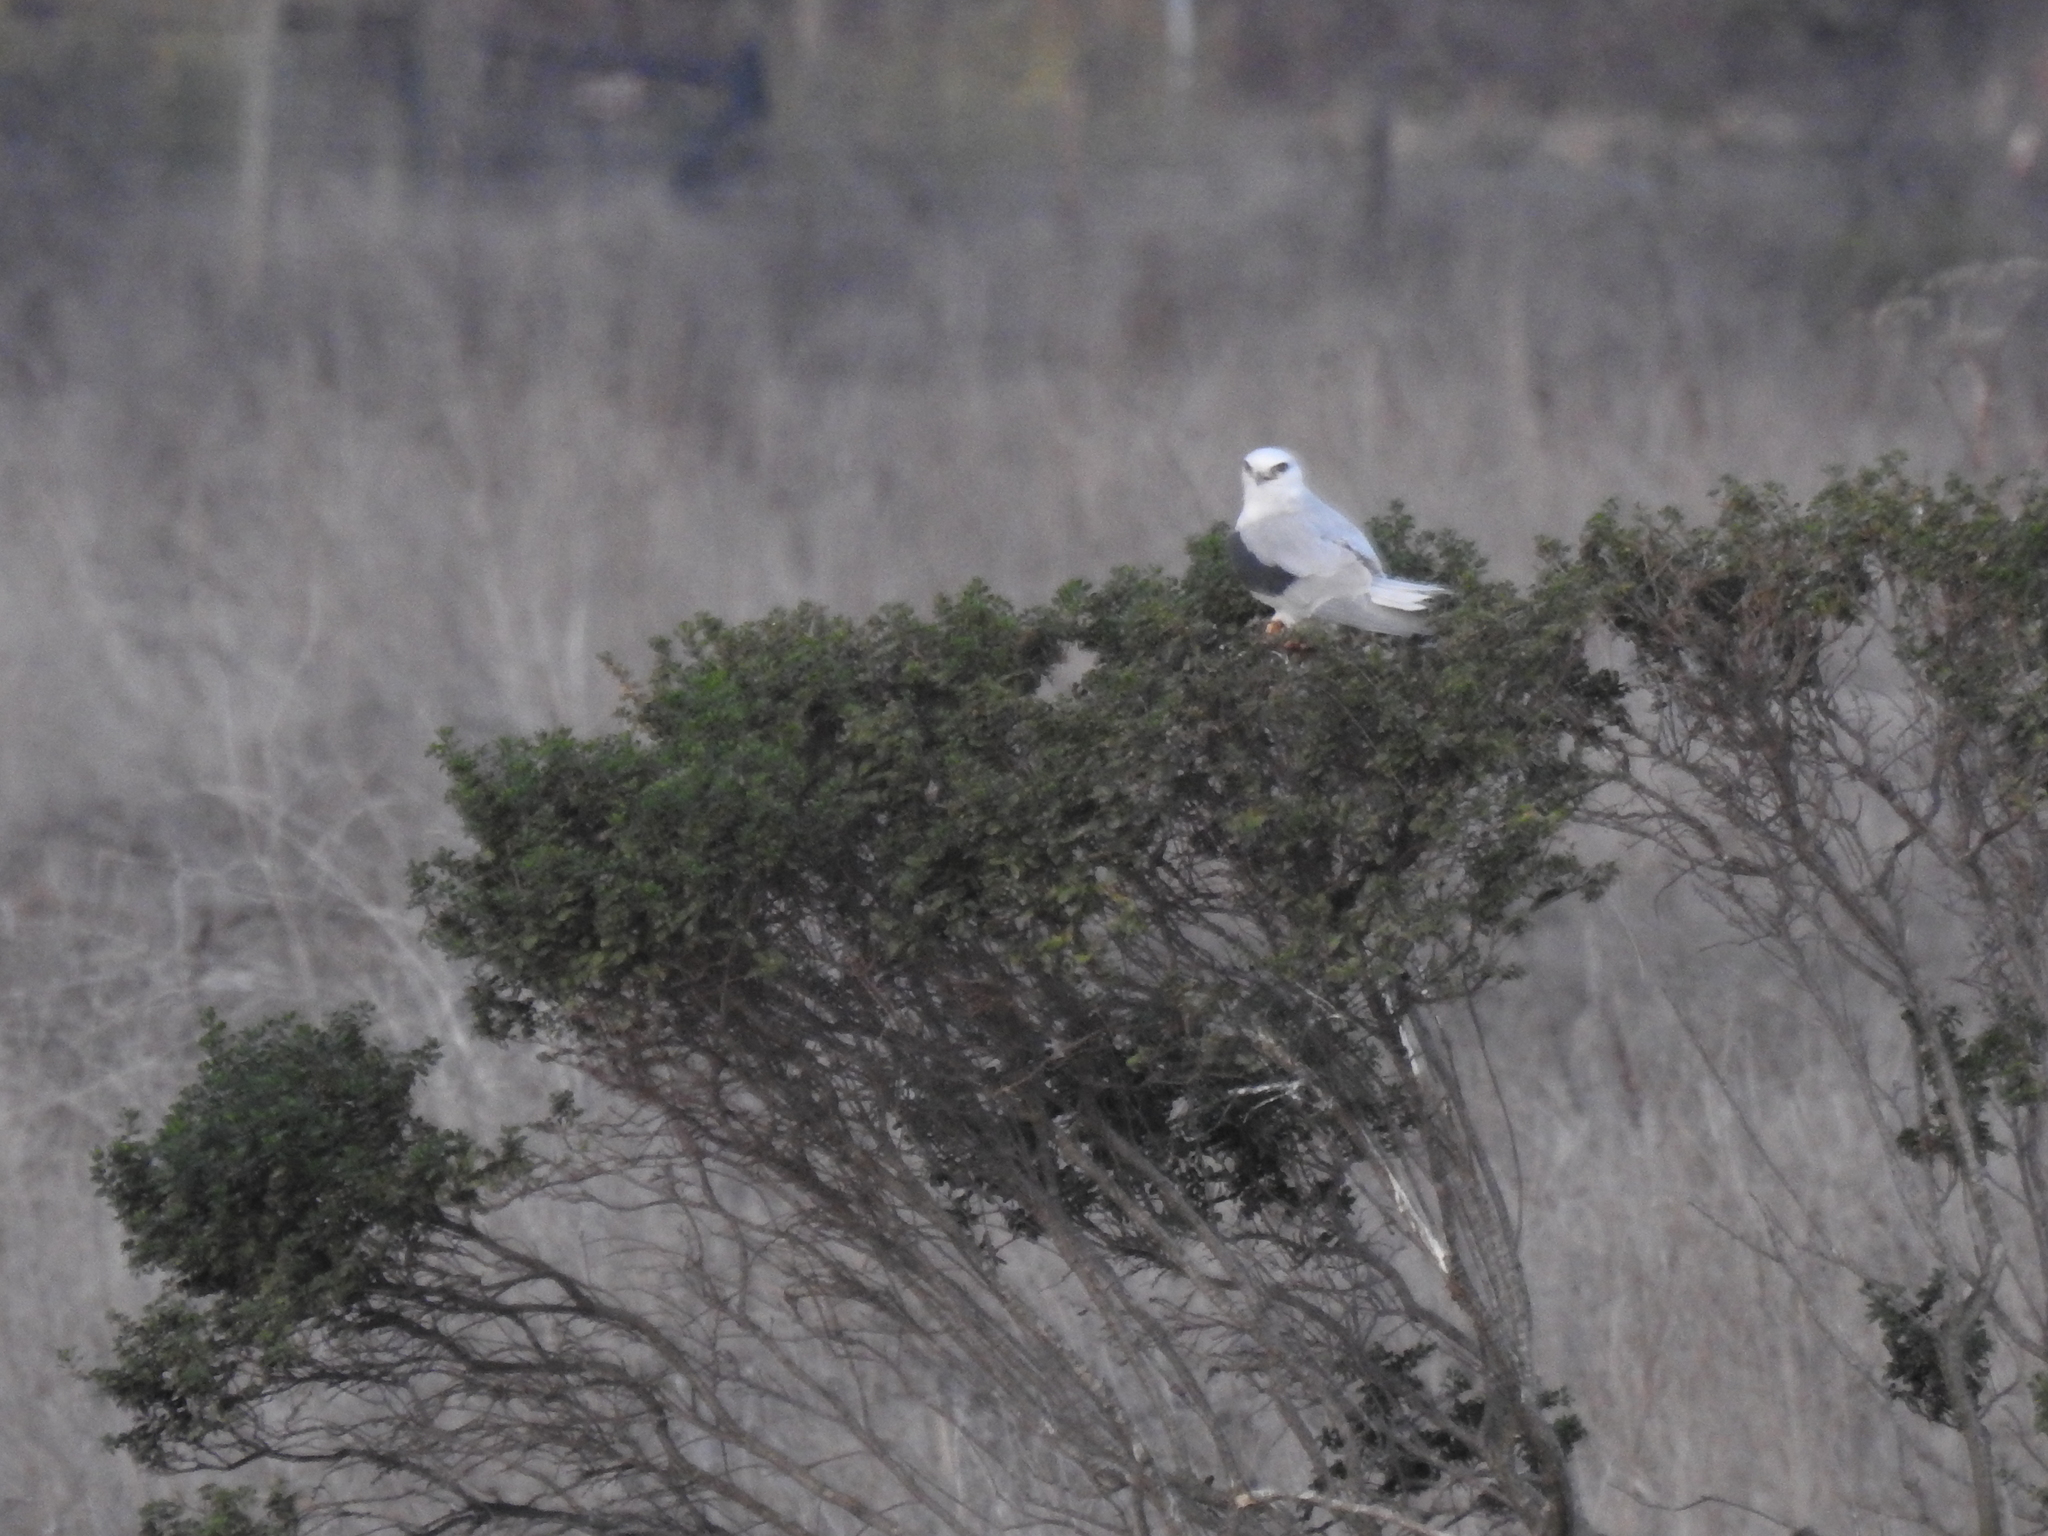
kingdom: Animalia
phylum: Chordata
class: Aves
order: Accipitriformes
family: Accipitridae
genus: Elanus
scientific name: Elanus leucurus
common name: White-tailed kite
